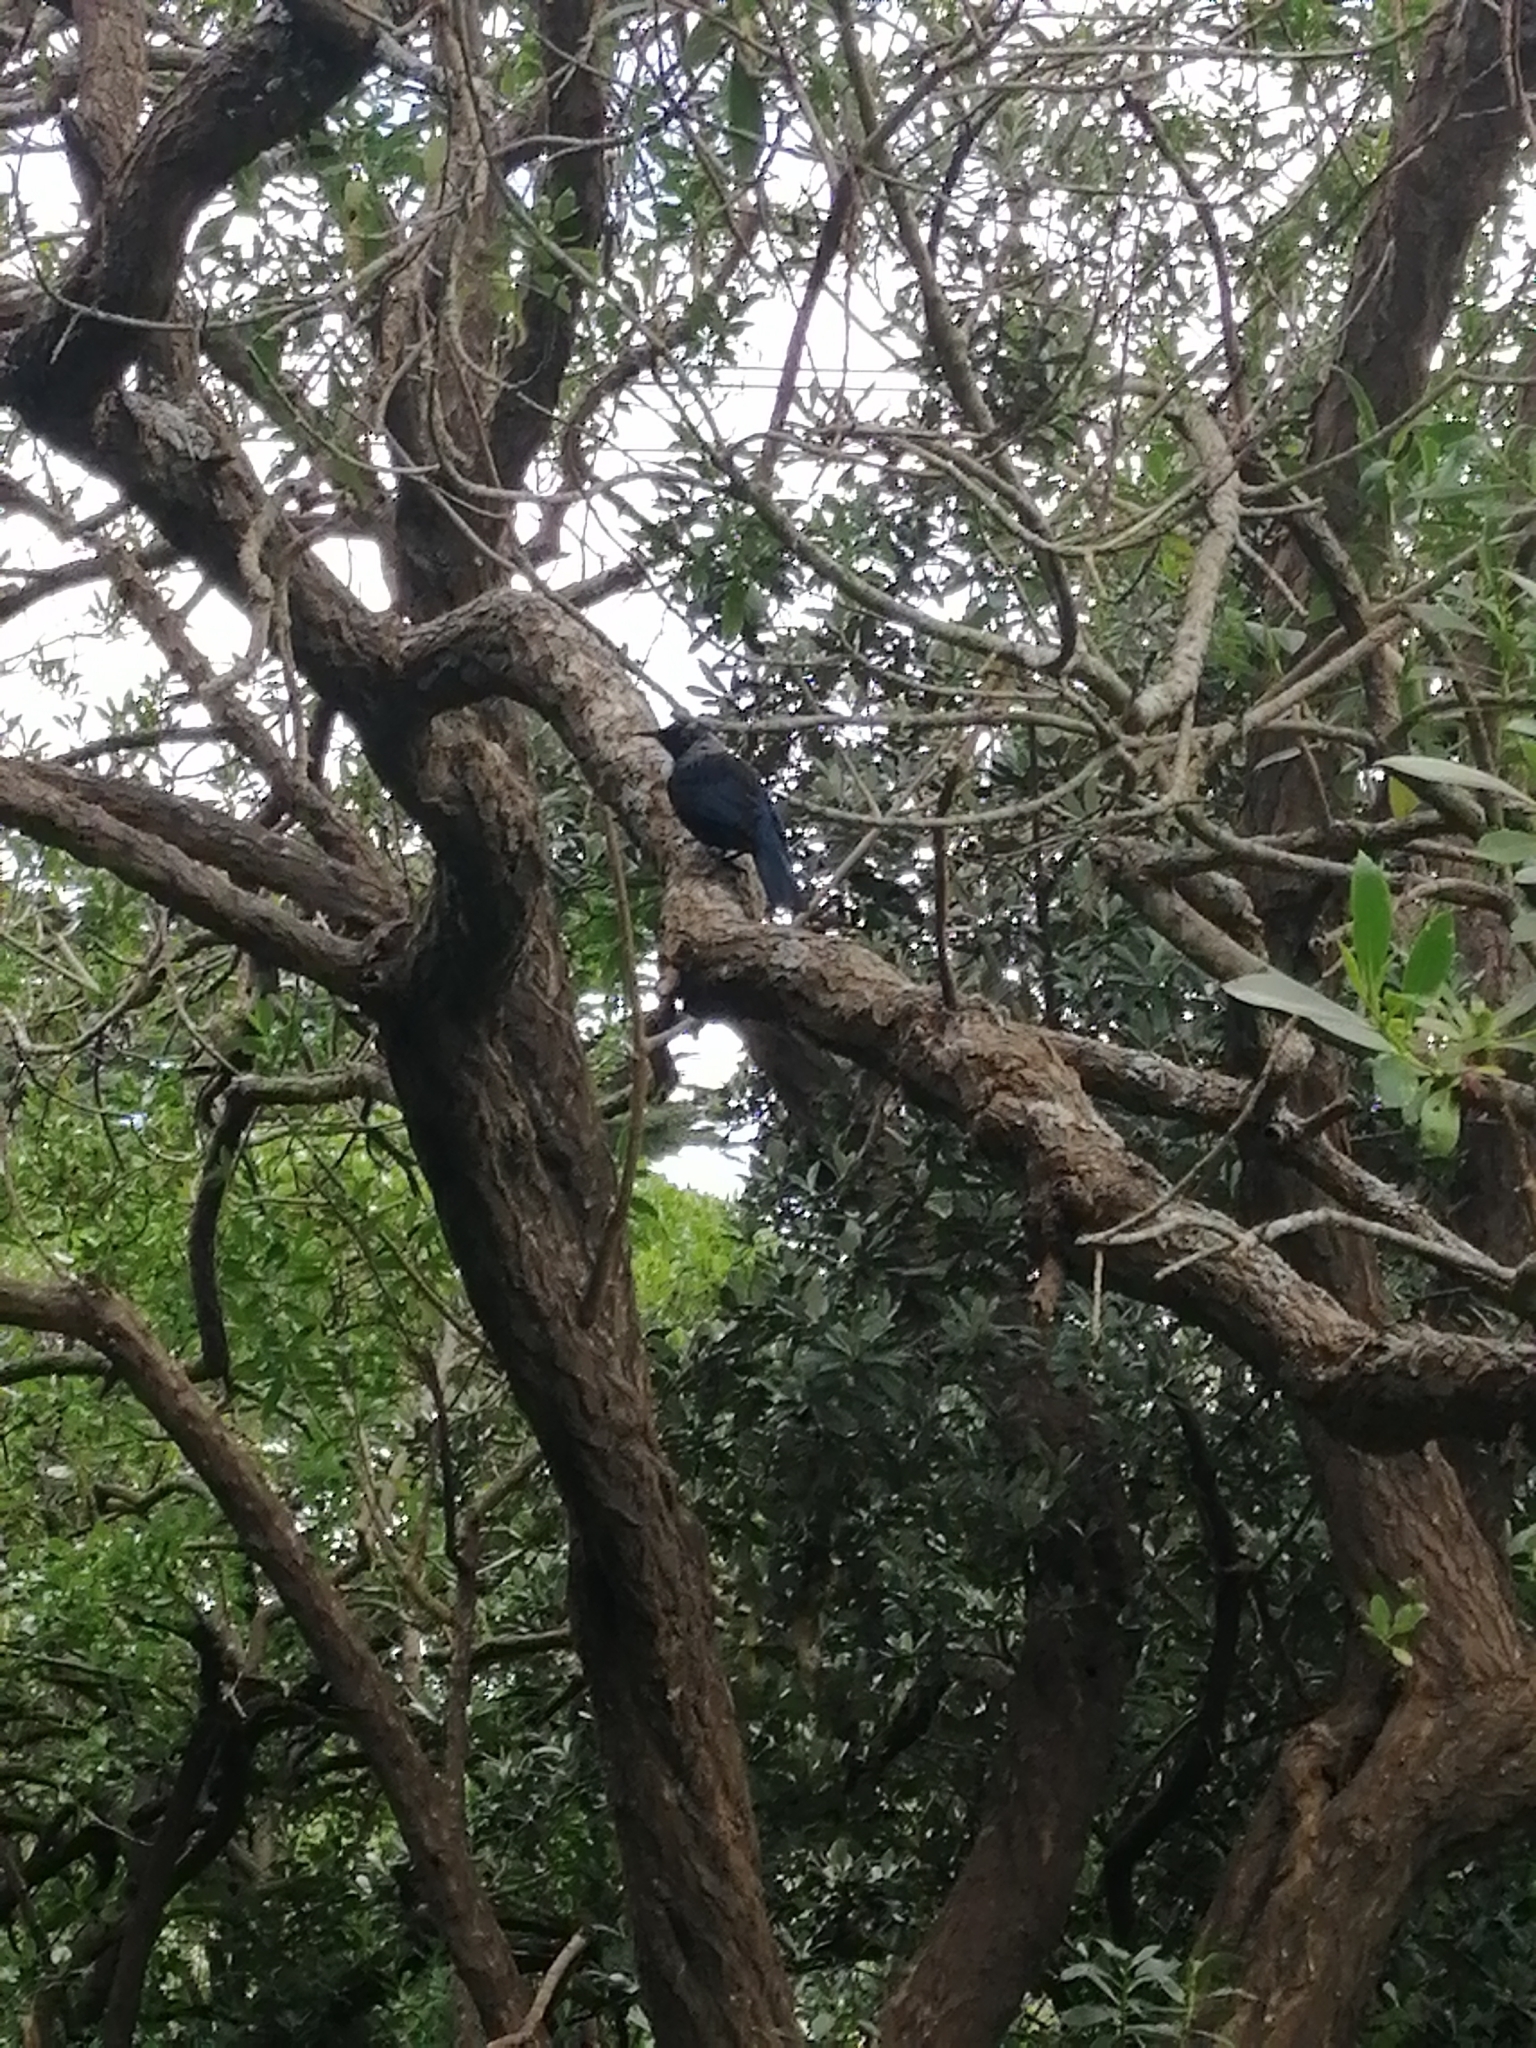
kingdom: Animalia
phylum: Chordata
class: Aves
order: Passeriformes
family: Meliphagidae
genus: Prosthemadera
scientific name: Prosthemadera novaeseelandiae
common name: Tui
